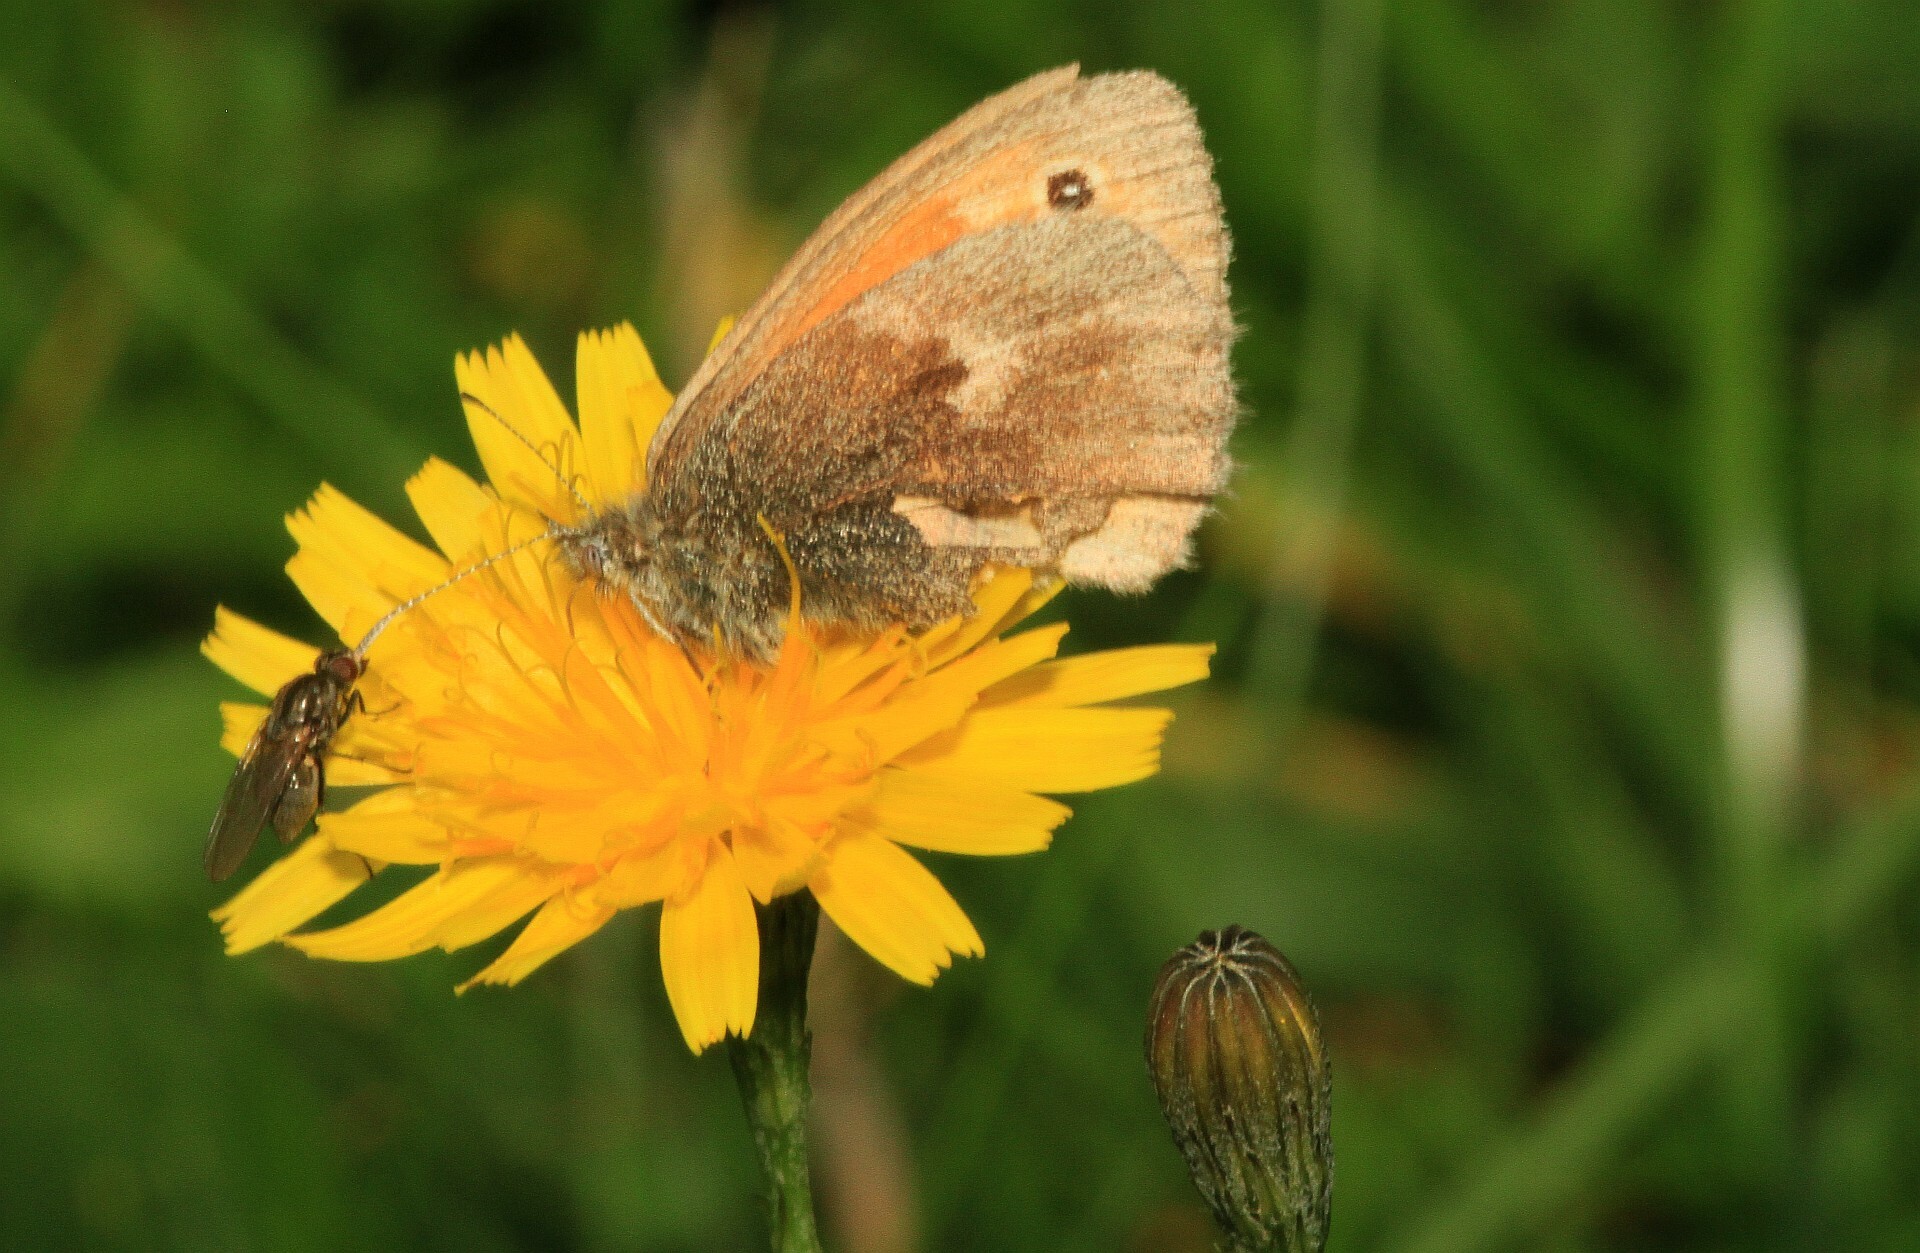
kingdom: Animalia
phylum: Arthropoda
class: Insecta
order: Lepidoptera
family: Nymphalidae
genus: Coenonympha
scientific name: Coenonympha pamphilus
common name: Small heath
